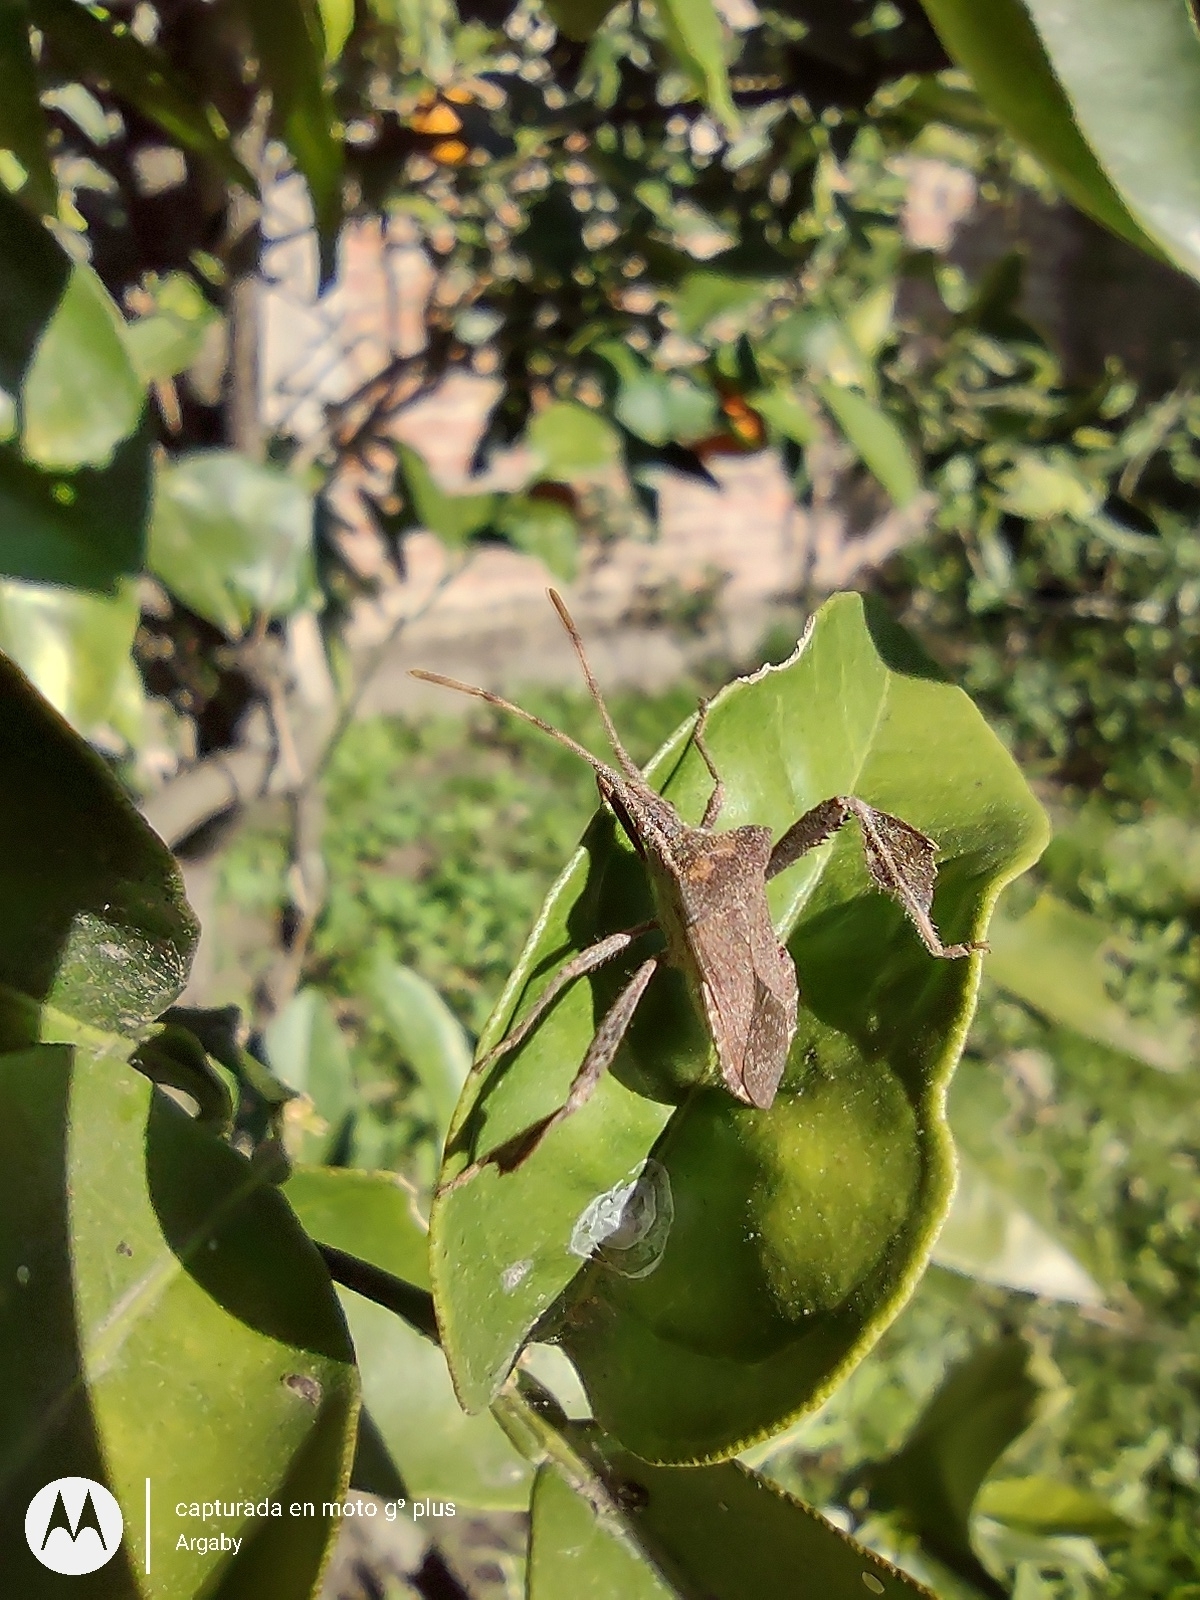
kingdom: Animalia
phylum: Arthropoda
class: Insecta
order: Hemiptera
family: Coreidae
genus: Leptoglossus
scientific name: Leptoglossus concaviusculus
